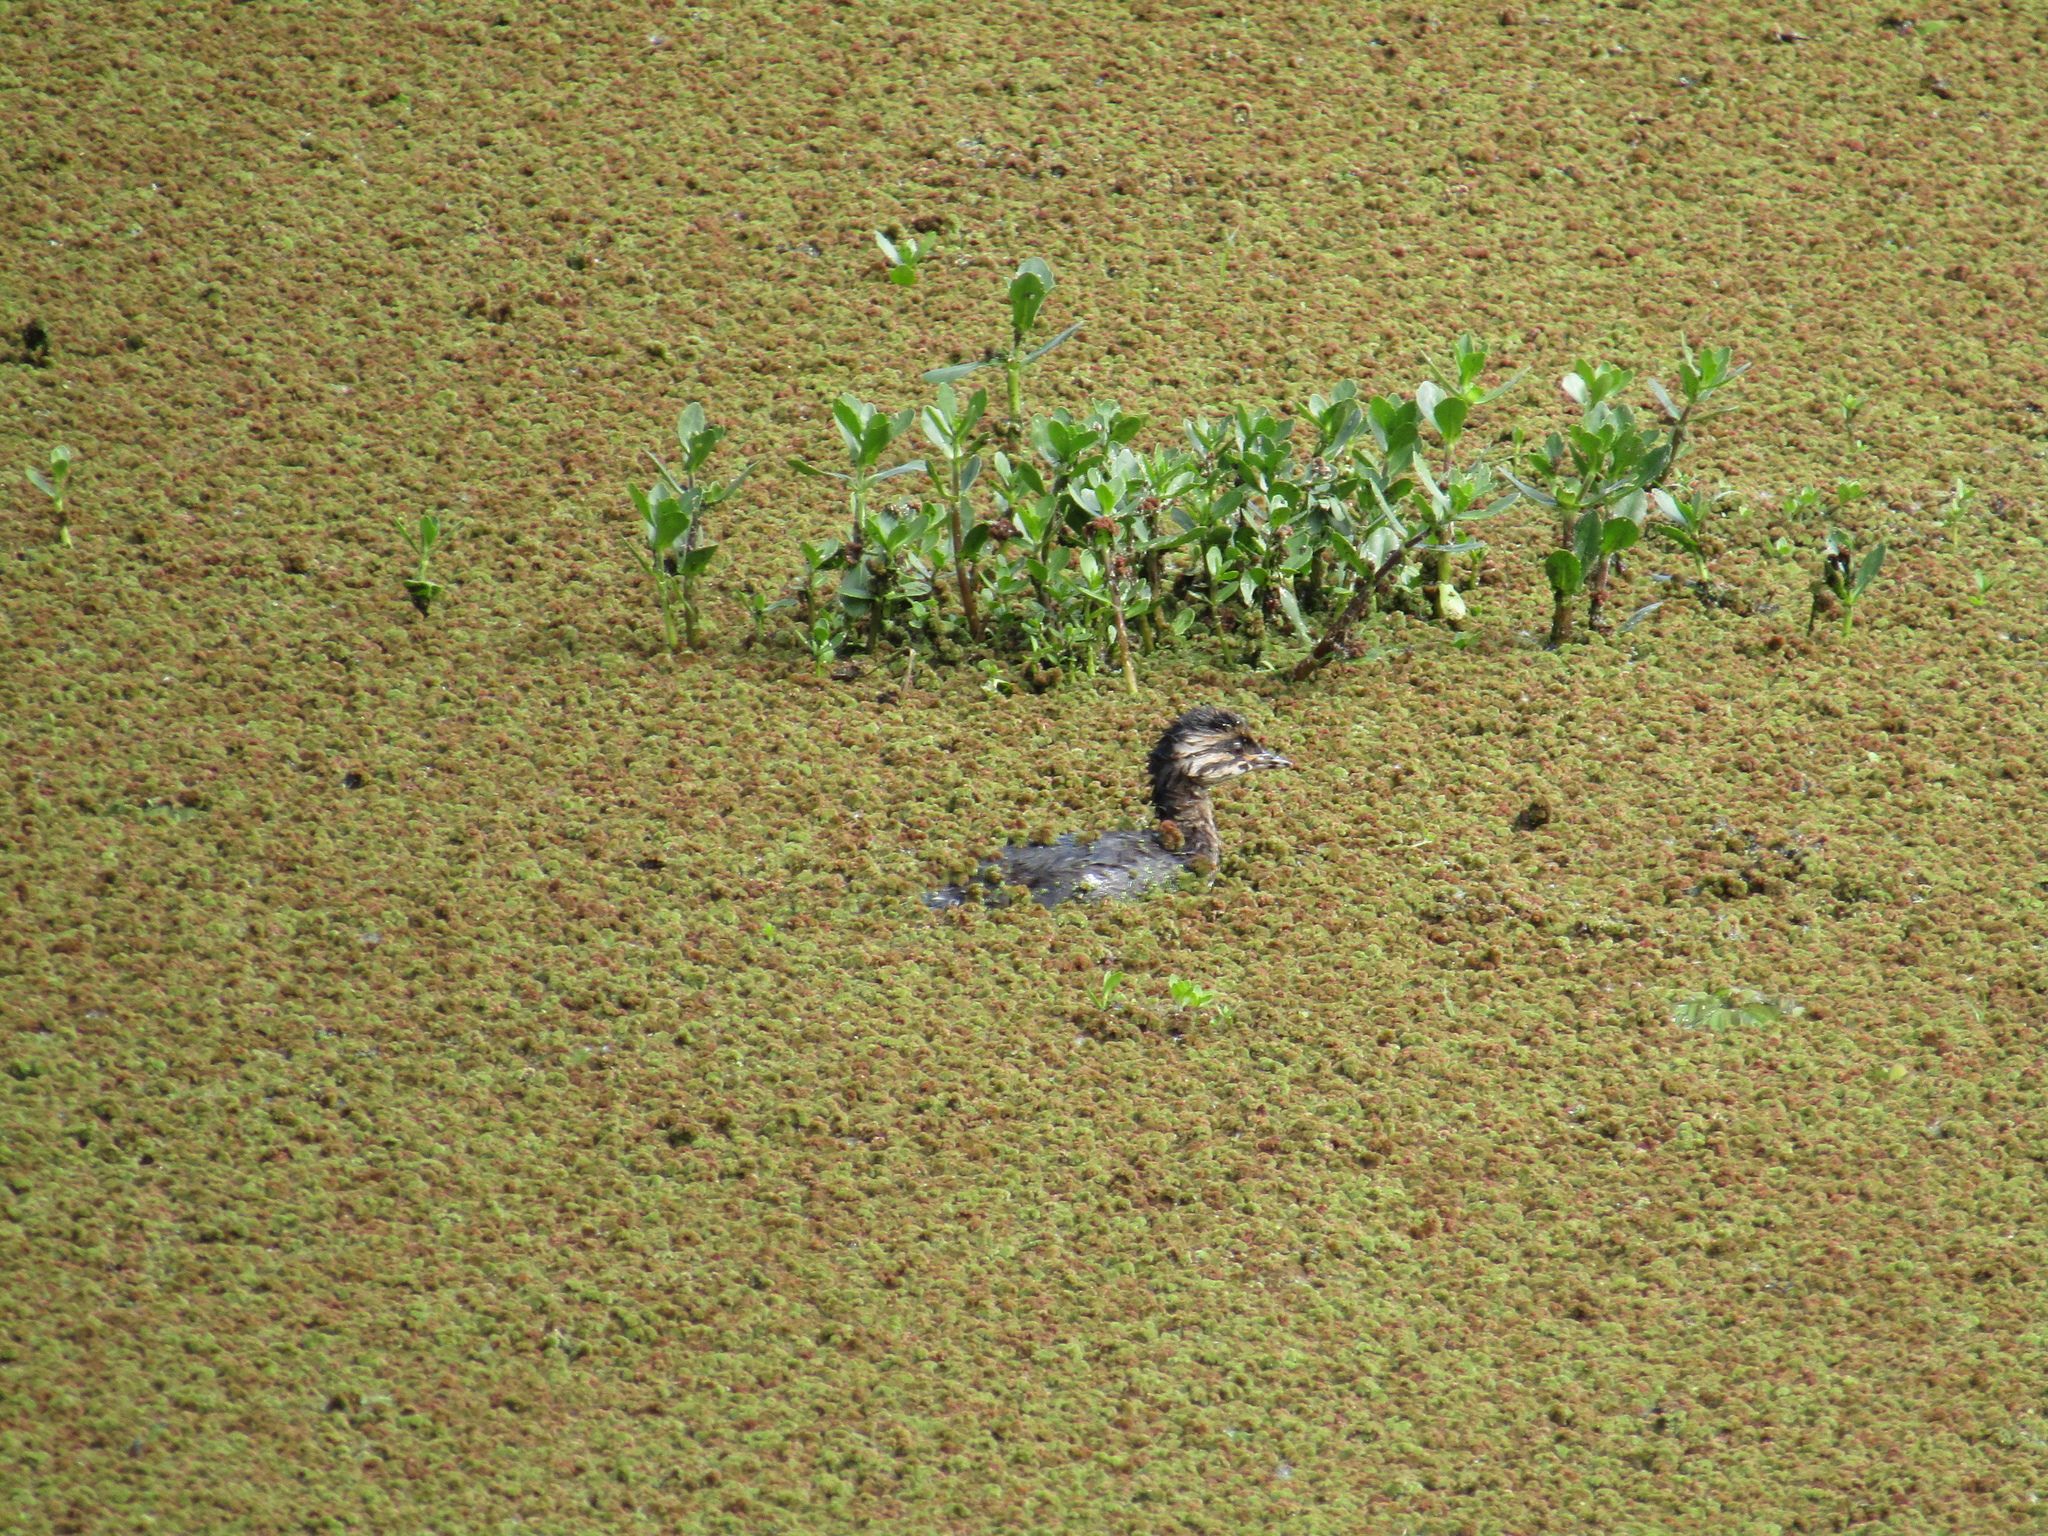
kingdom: Animalia
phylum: Chordata
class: Aves
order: Podicipediformes
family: Podicipedidae
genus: Rollandia
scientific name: Rollandia rolland
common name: White-tufted grebe
